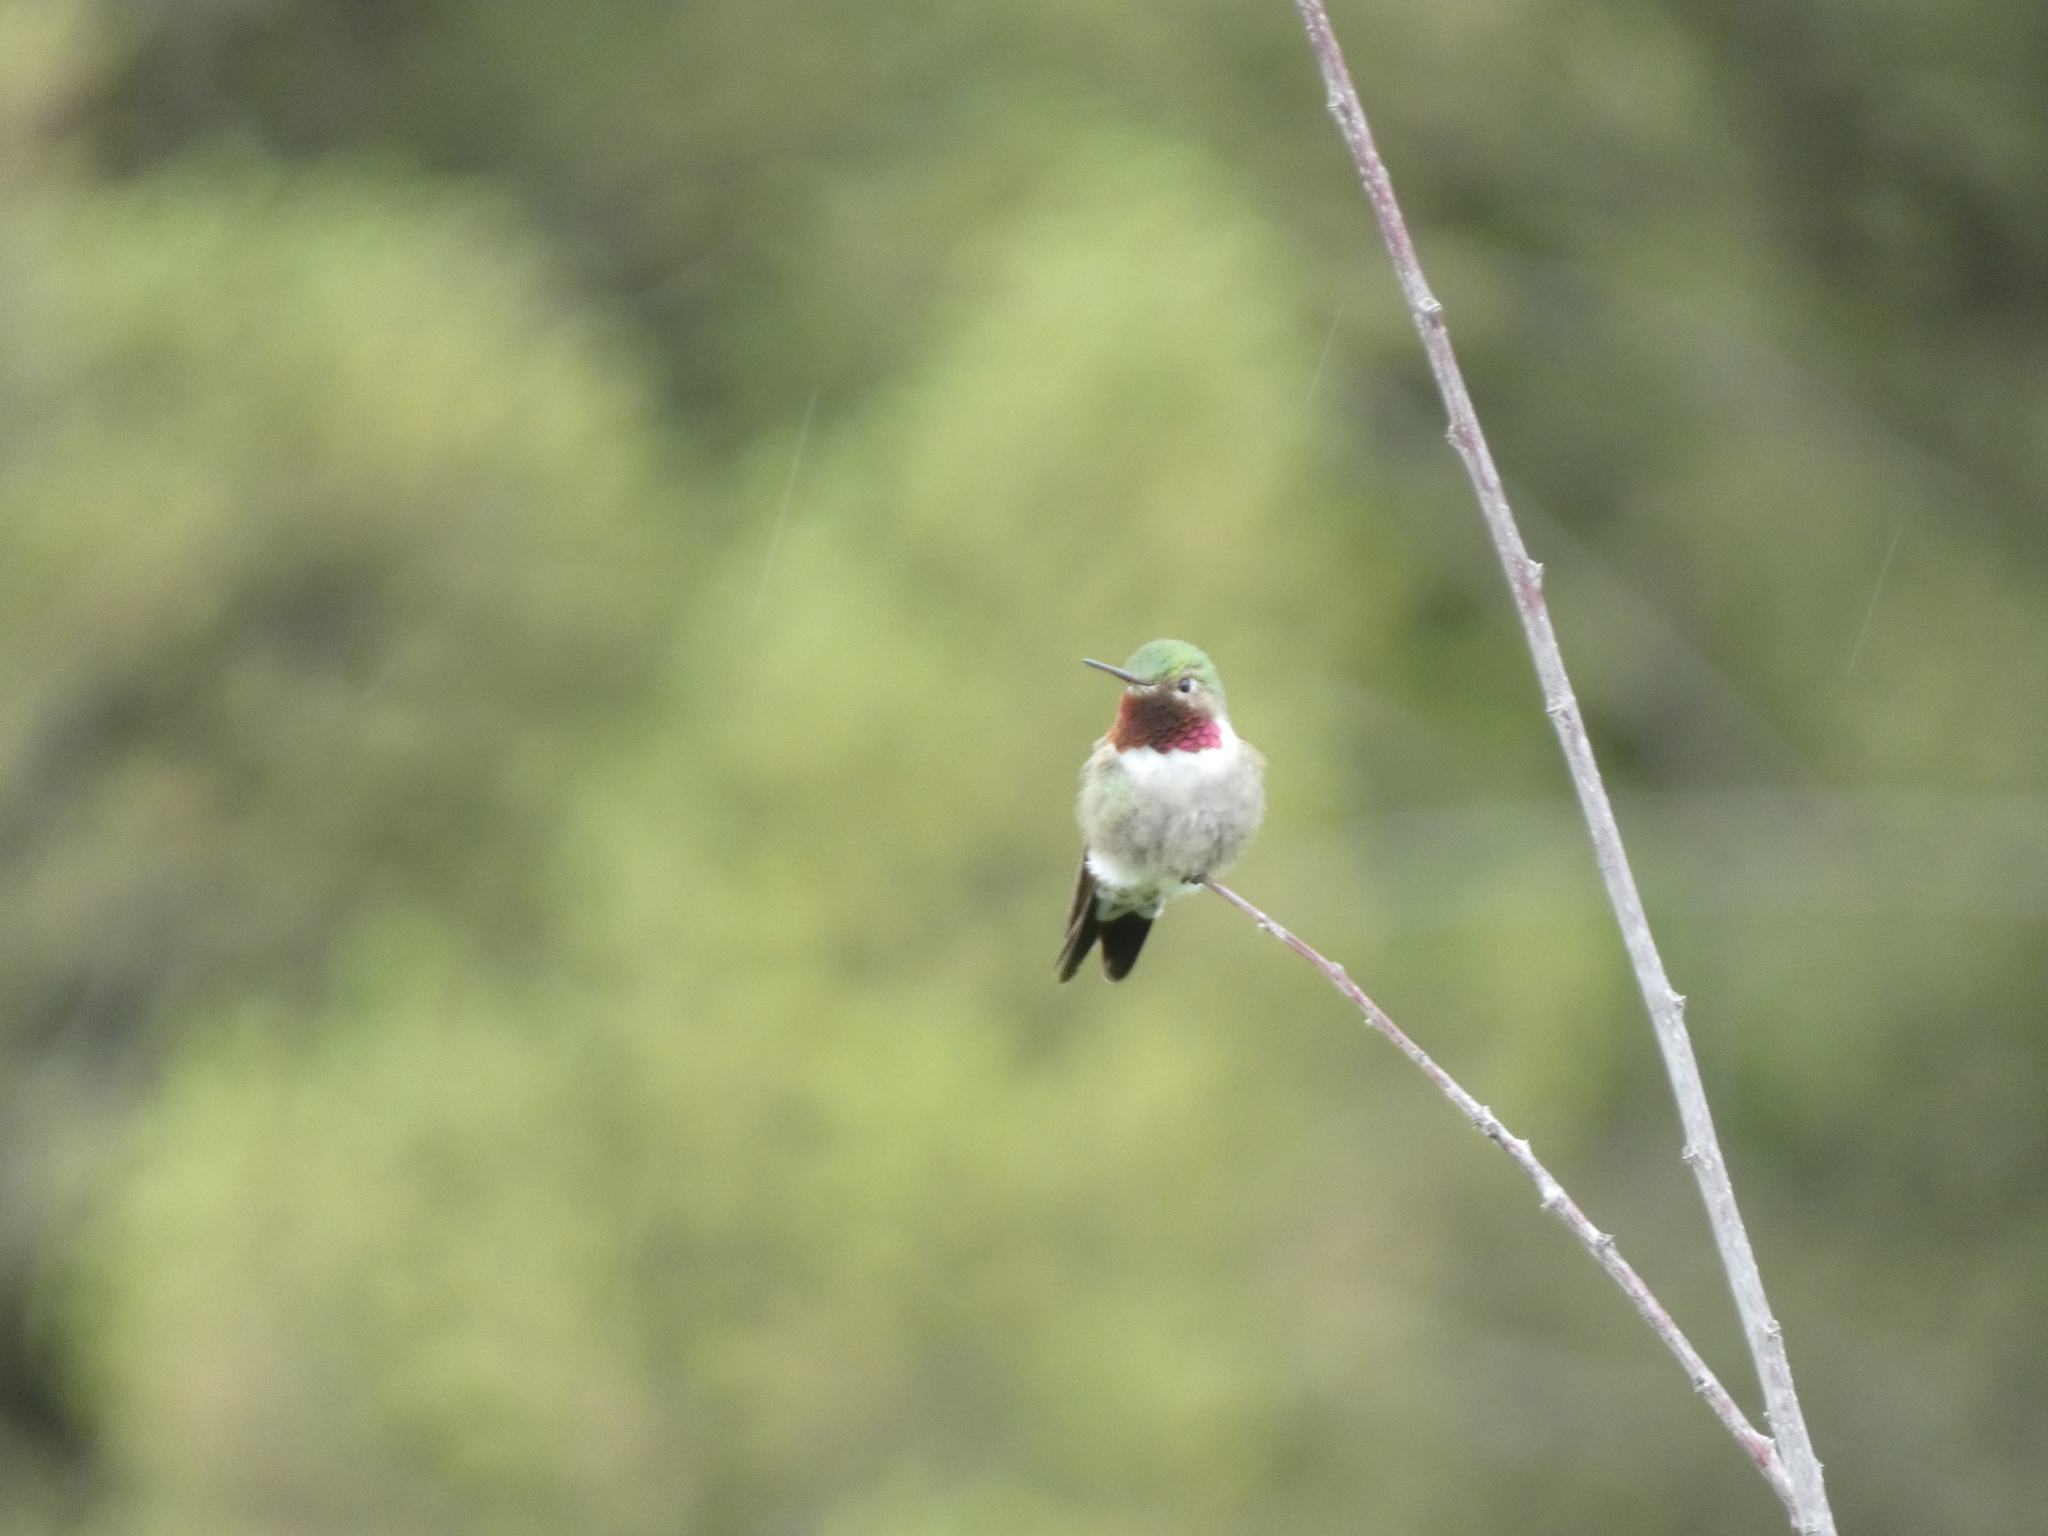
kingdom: Animalia
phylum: Chordata
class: Aves
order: Apodiformes
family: Trochilidae
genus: Selasphorus
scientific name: Selasphorus platycercus
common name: Broad-tailed hummingbird
